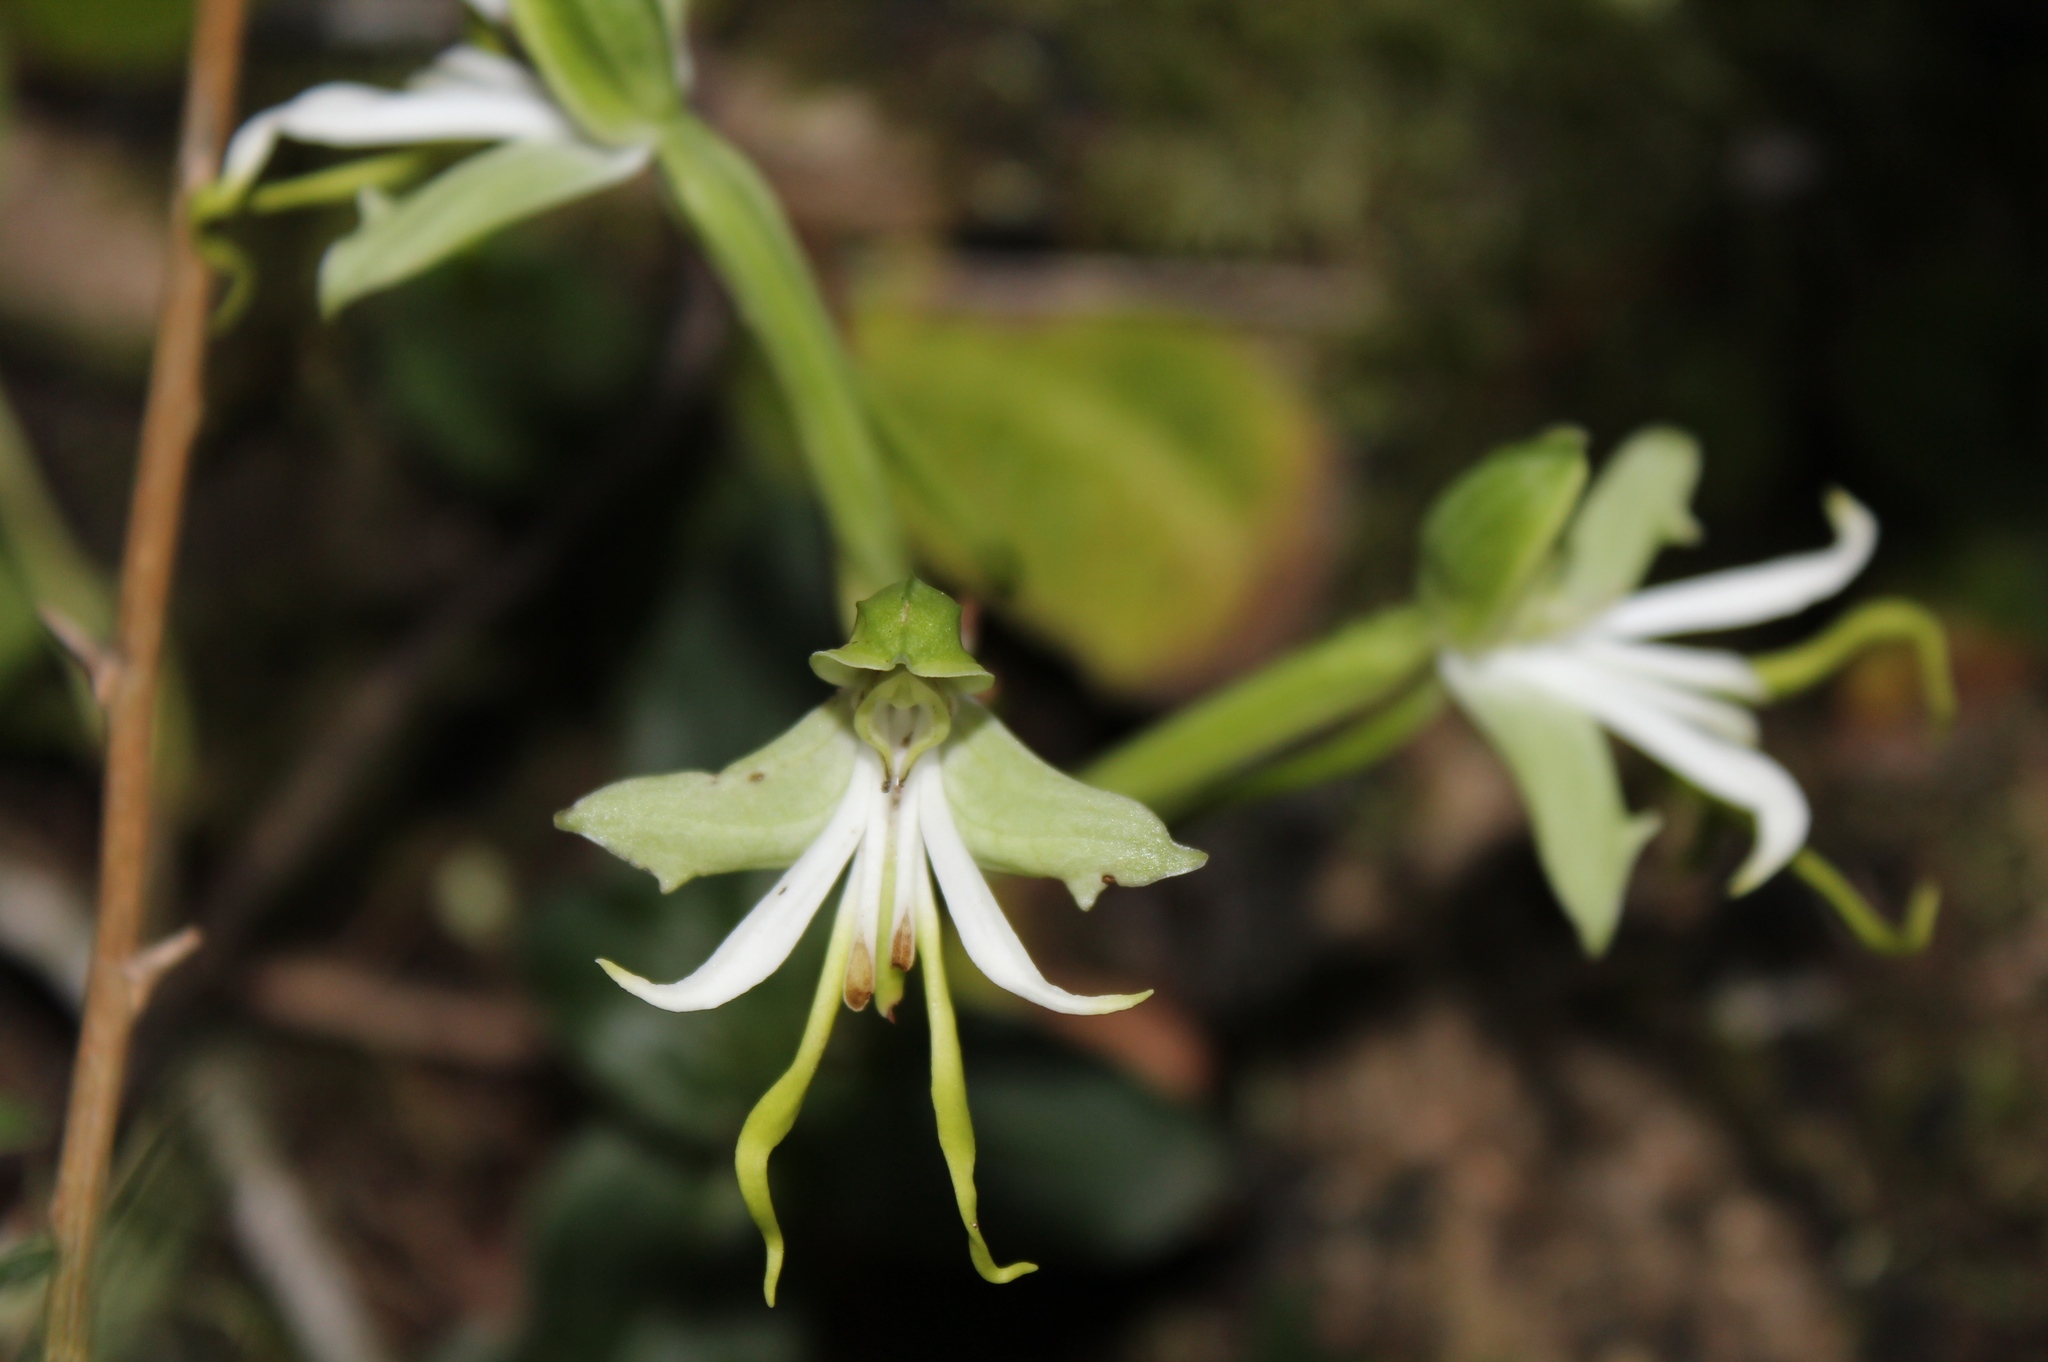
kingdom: Plantae
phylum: Tracheophyta
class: Liliopsida
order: Asparagales
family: Orchidaceae
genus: Bonatea
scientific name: Bonatea speciosa
